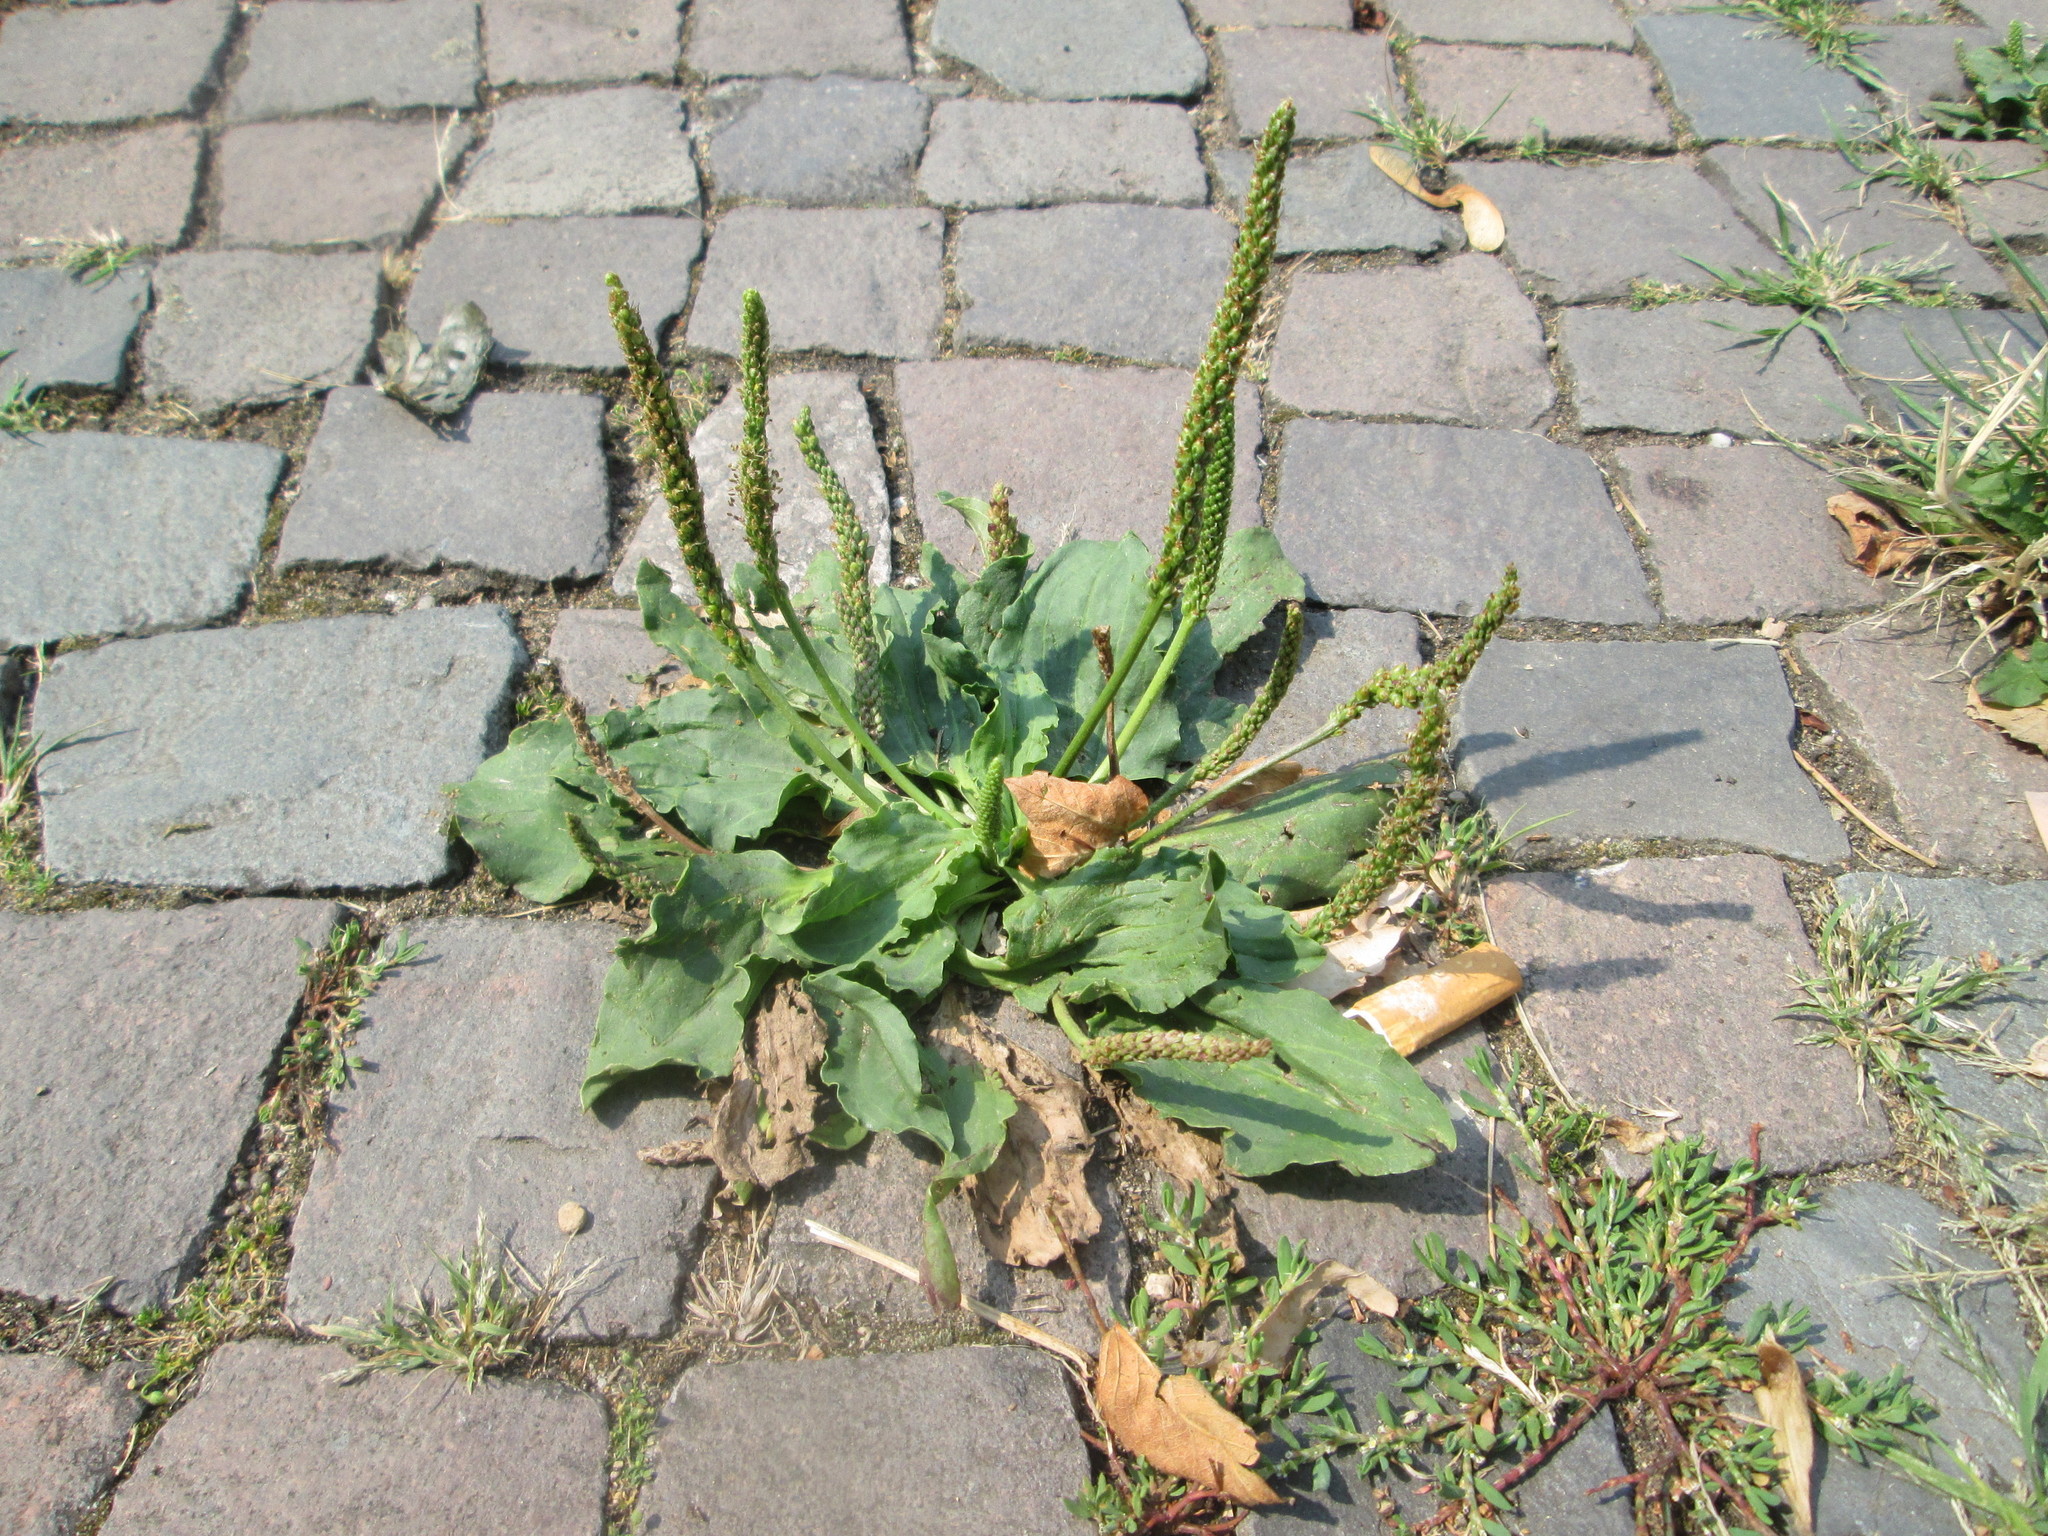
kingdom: Plantae
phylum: Tracheophyta
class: Magnoliopsida
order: Lamiales
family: Plantaginaceae
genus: Plantago
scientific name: Plantago major
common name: Common plantain
